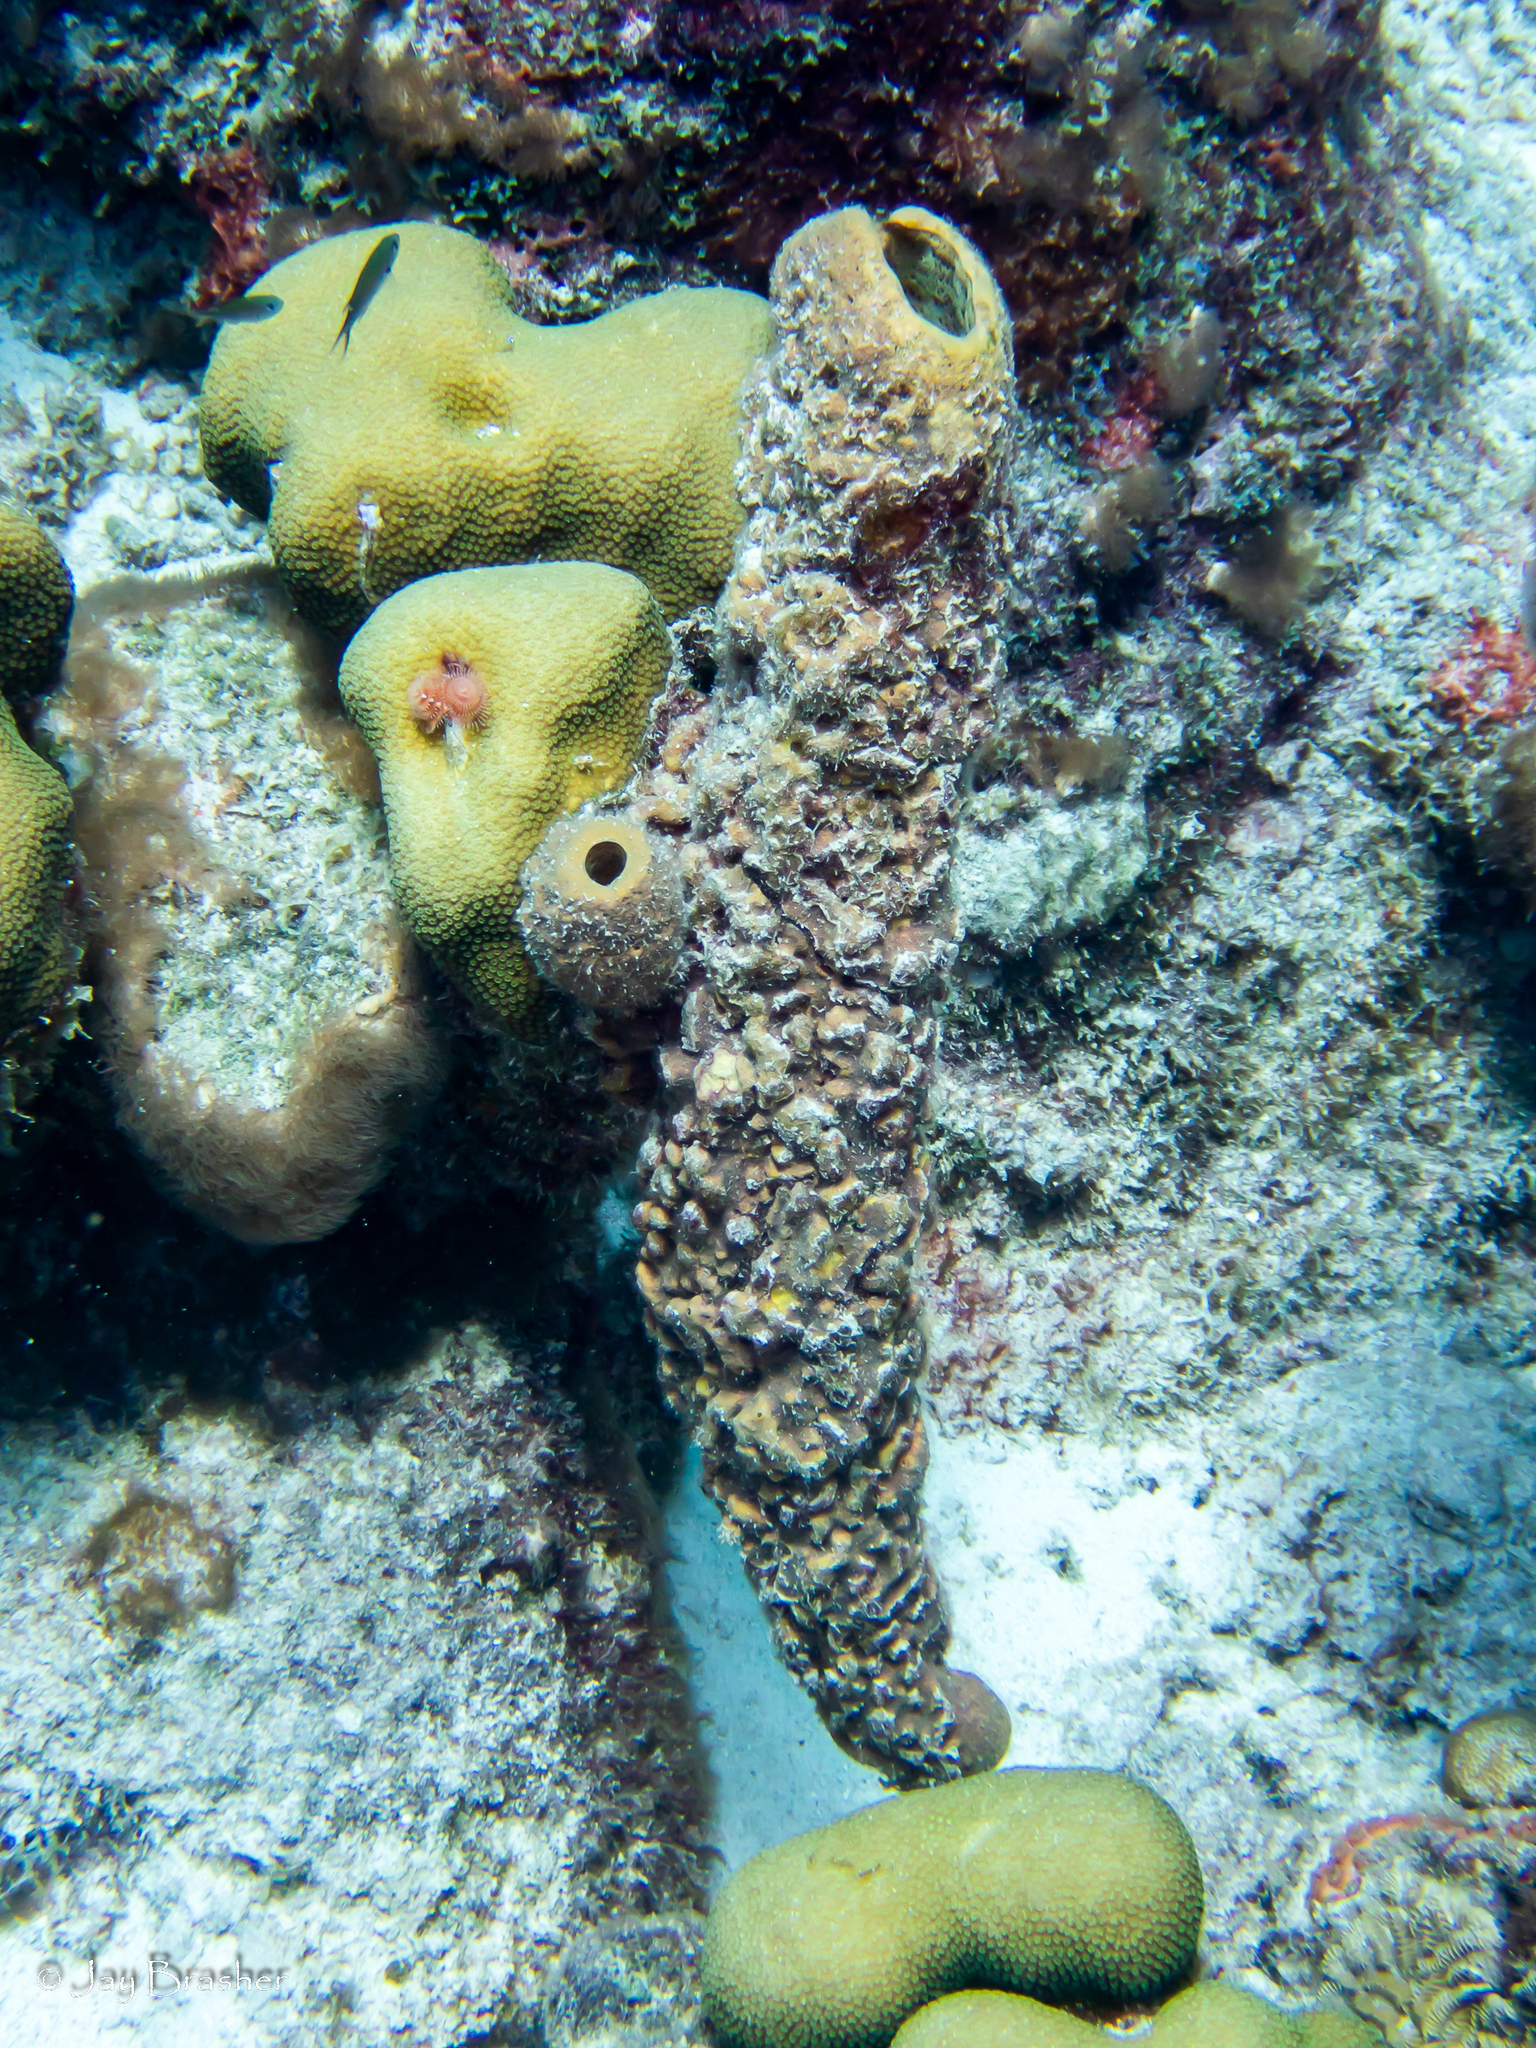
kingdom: Animalia
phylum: Cnidaria
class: Anthozoa
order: Scleractinia
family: Merulinidae
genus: Orbicella
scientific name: Orbicella annularis
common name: Boulder star coral
